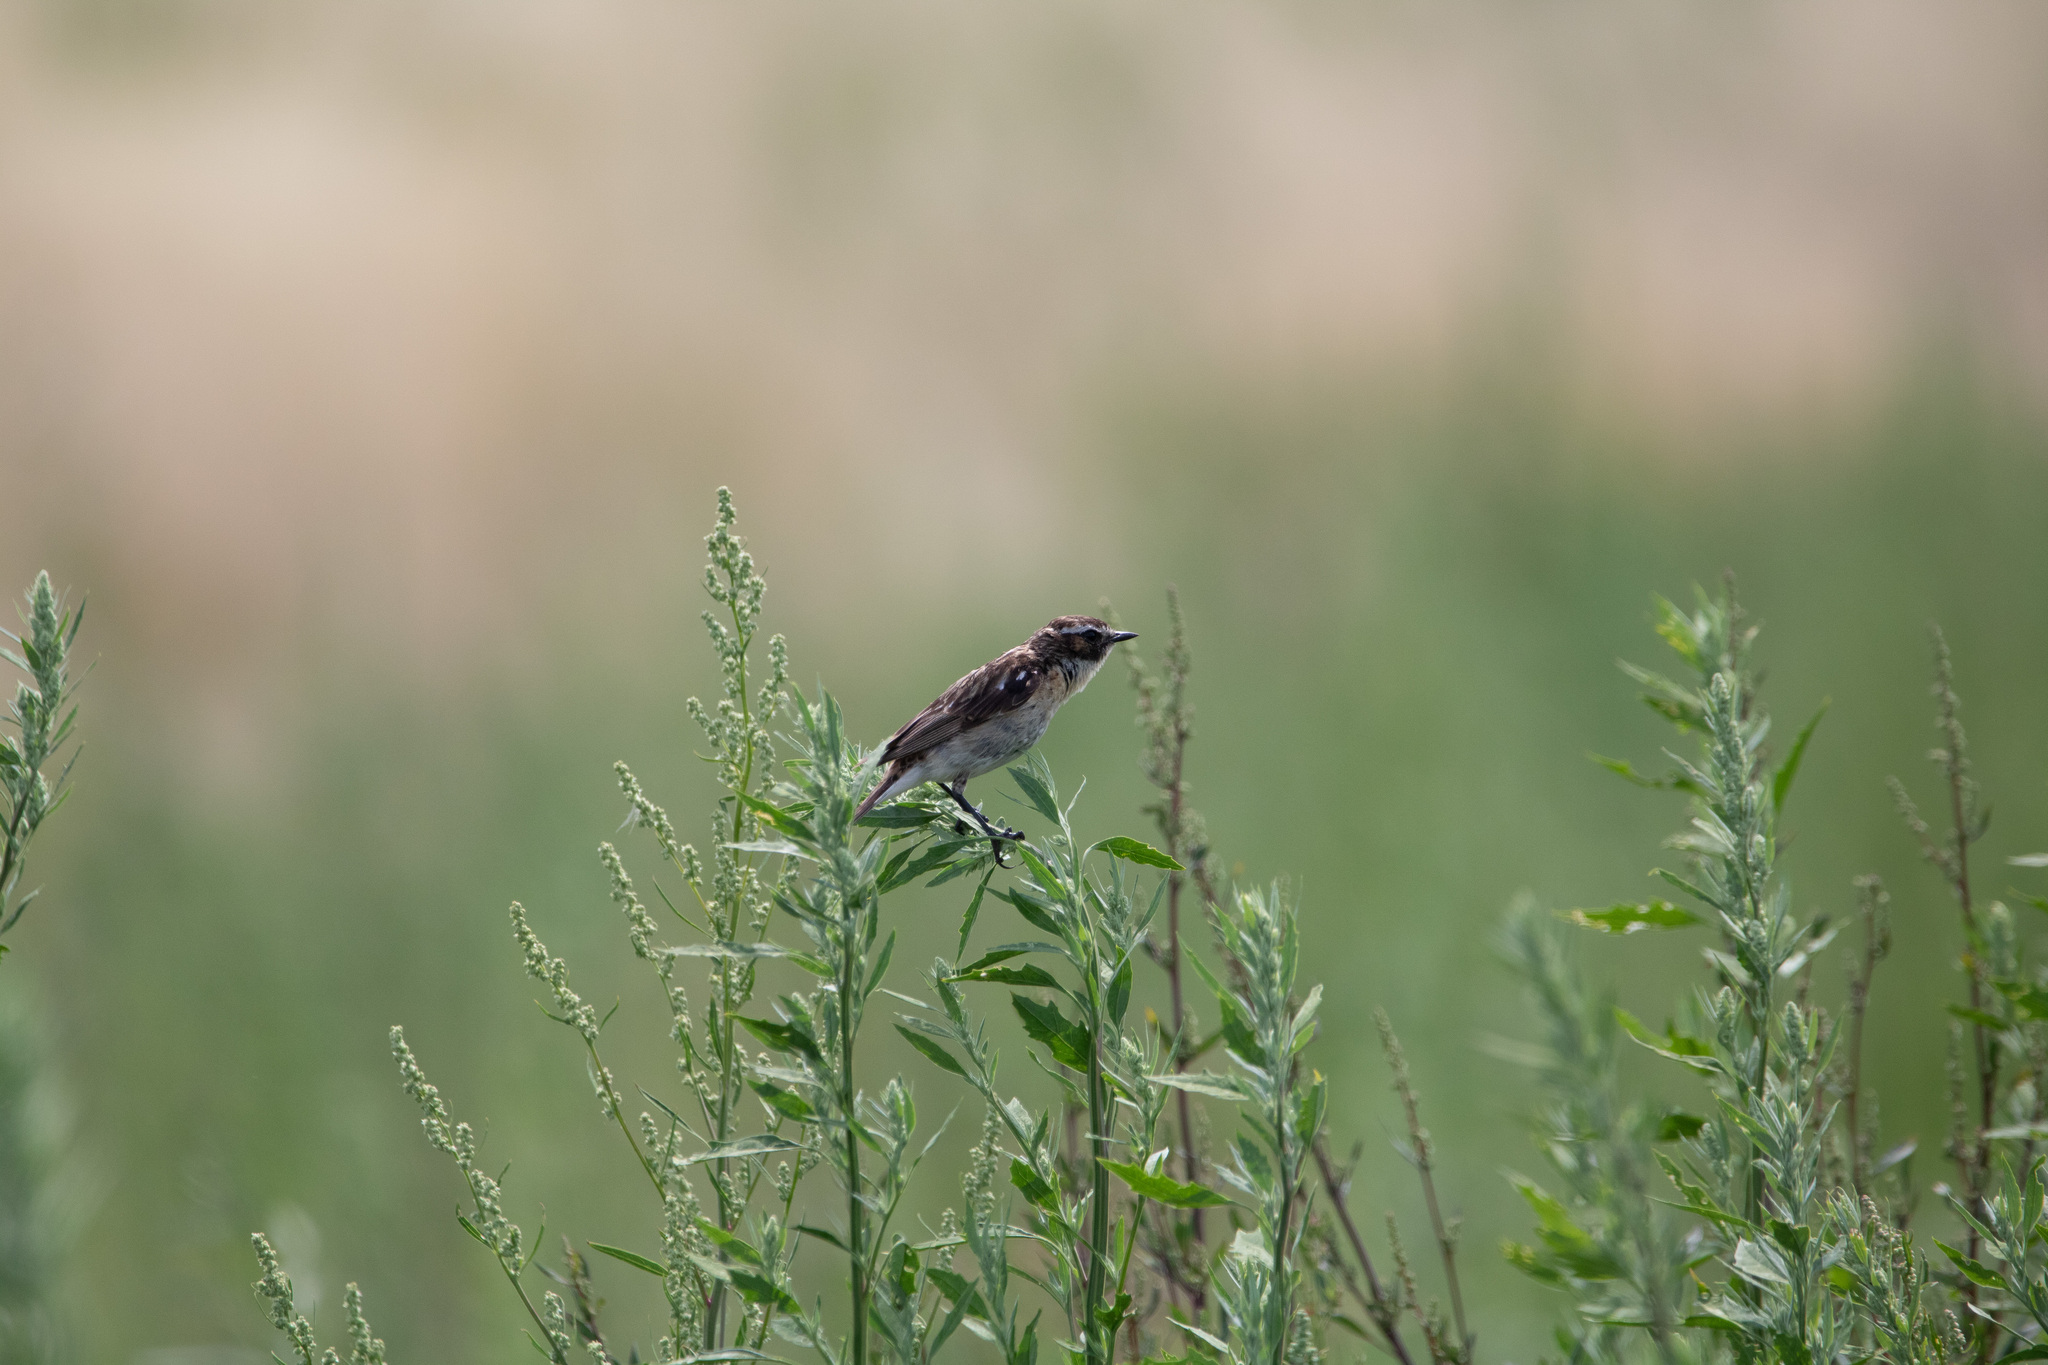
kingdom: Animalia
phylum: Chordata
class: Aves
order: Passeriformes
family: Muscicapidae
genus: Saxicola
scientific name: Saxicola rubetra
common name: Whinchat
